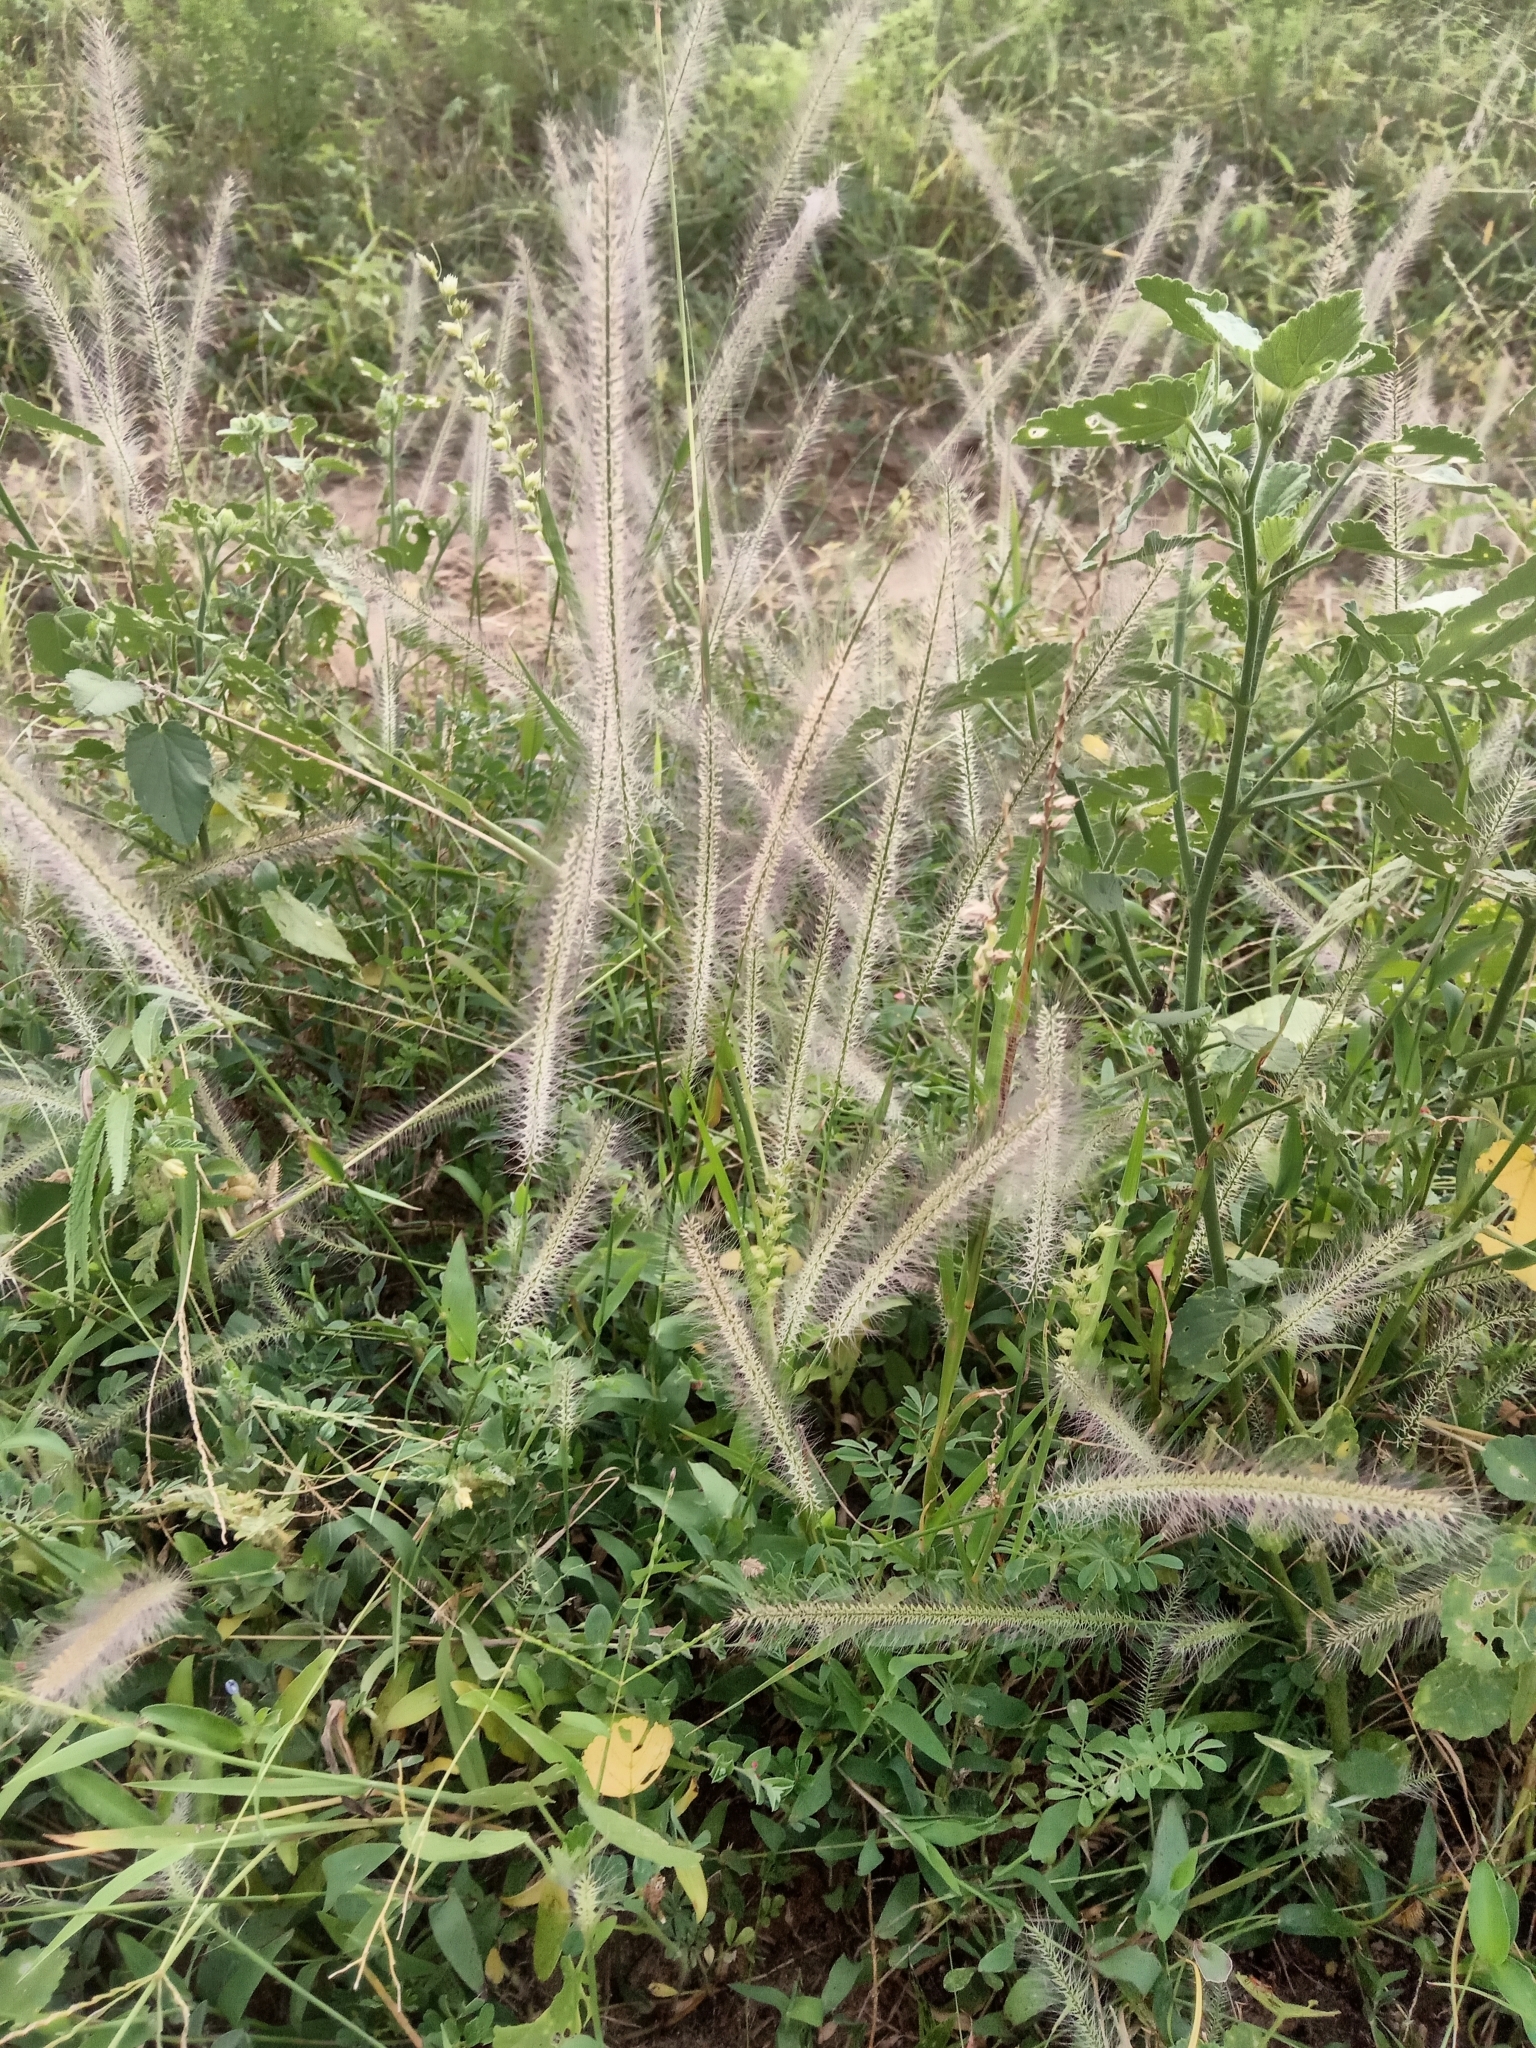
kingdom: Plantae
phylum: Tracheophyta
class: Liliopsida
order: Poales
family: Poaceae
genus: Perotis
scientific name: Perotis indica
